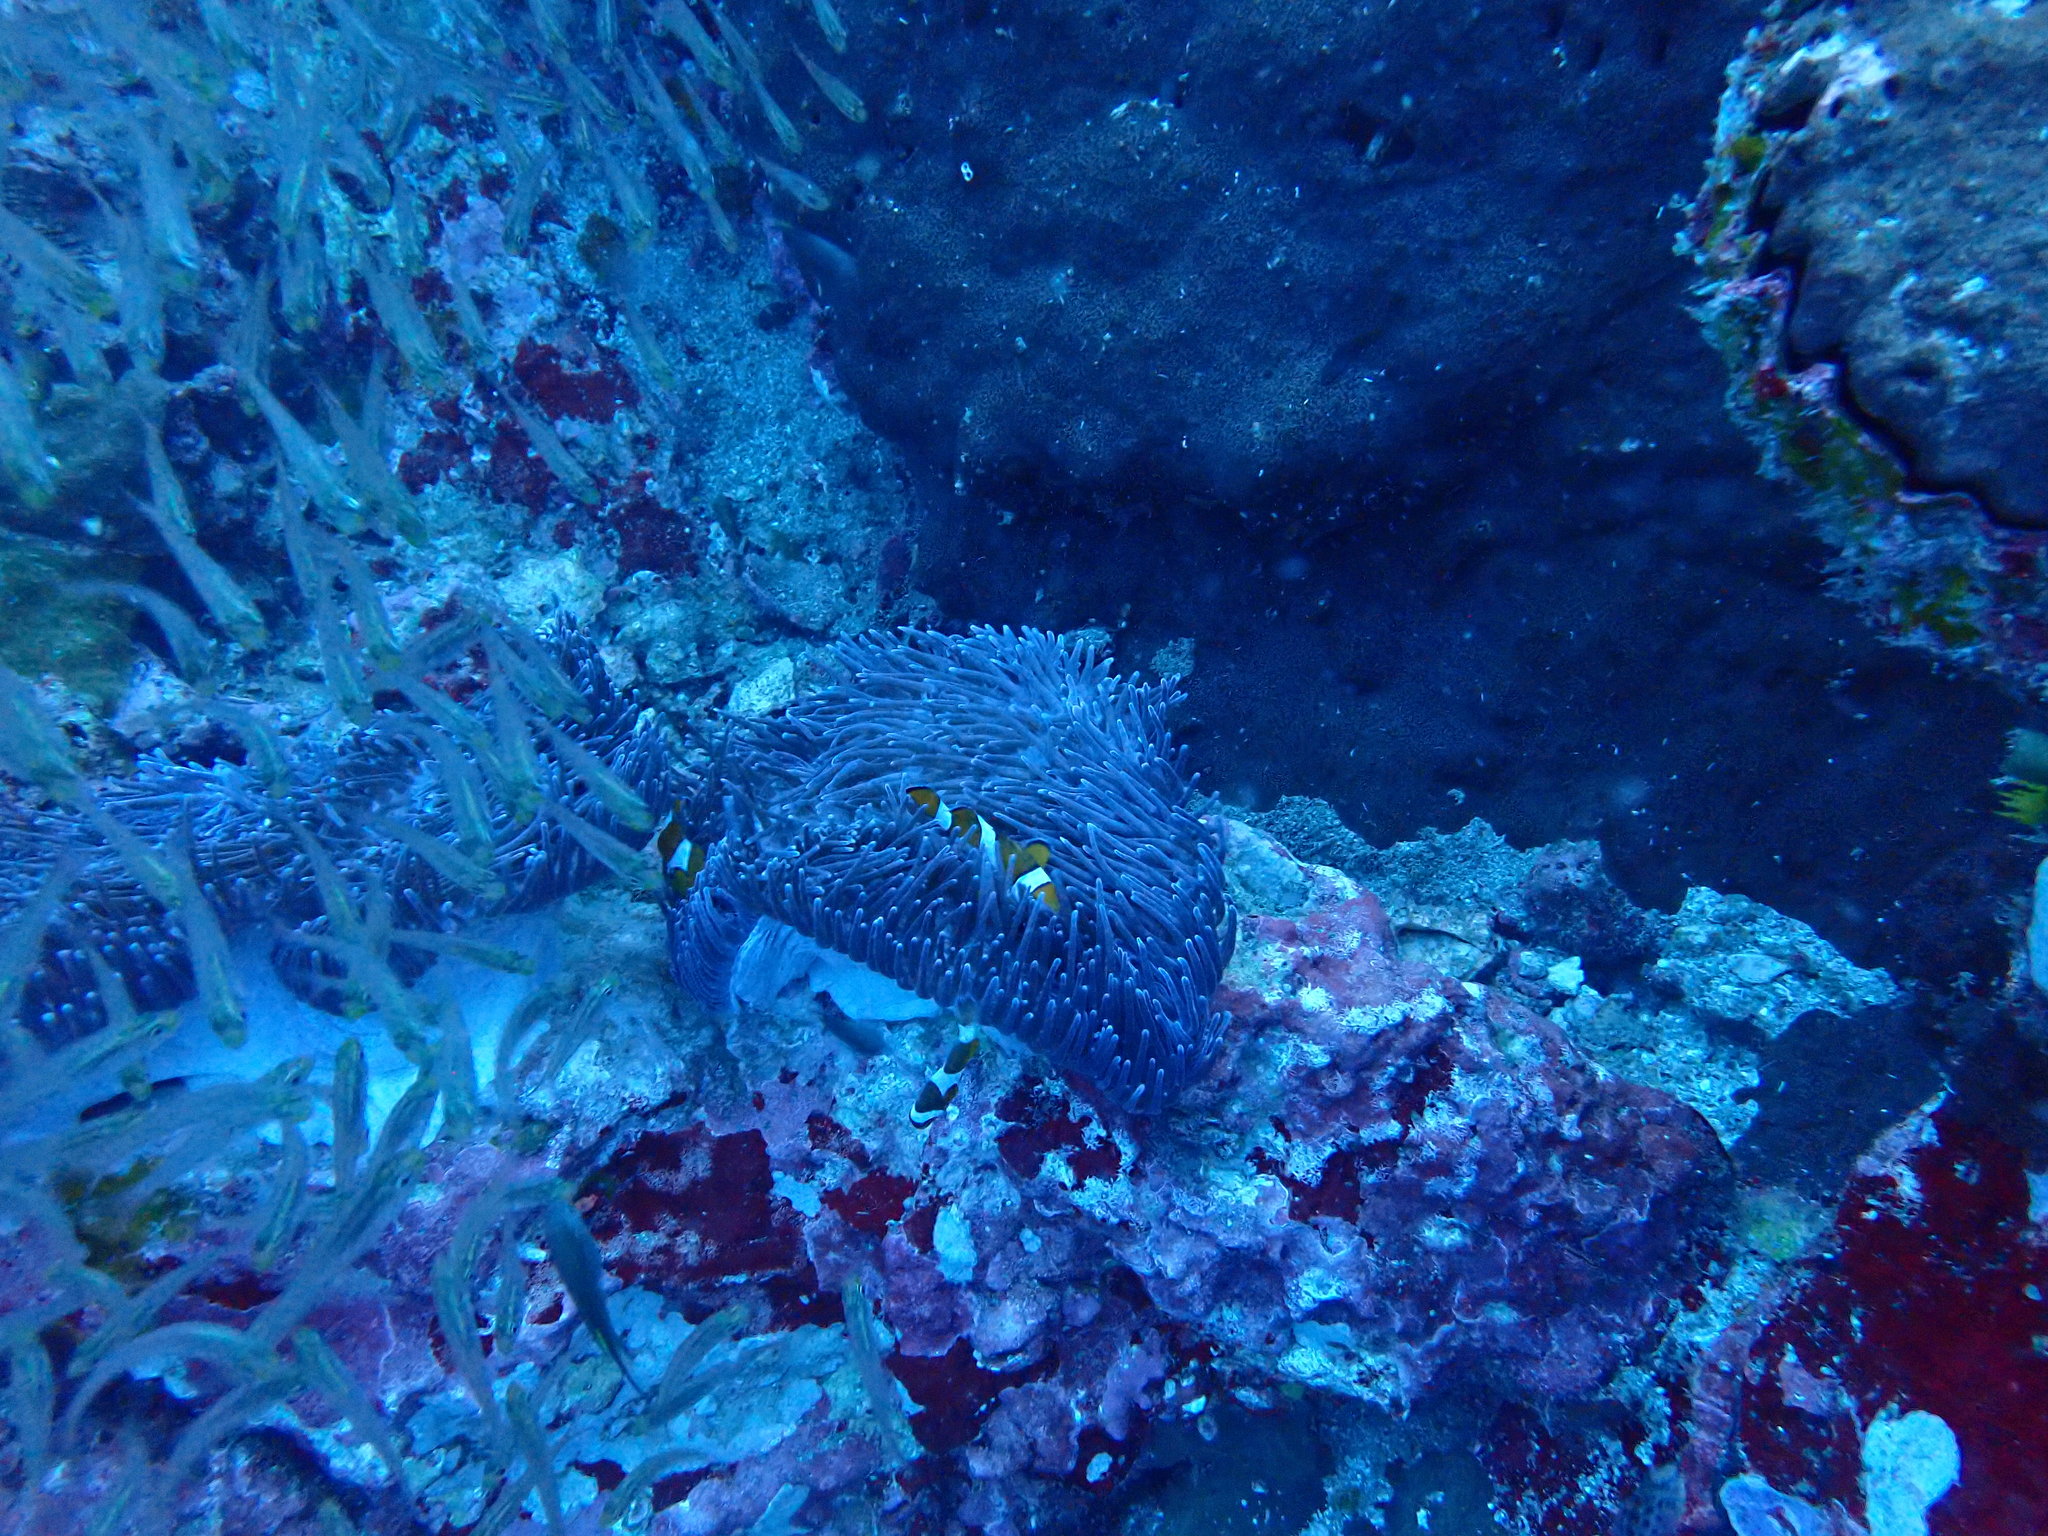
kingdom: Animalia
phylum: Chordata
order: Perciformes
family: Pomacentridae
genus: Amphiprion
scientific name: Amphiprion ocellaris
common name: Clown anemonefish
